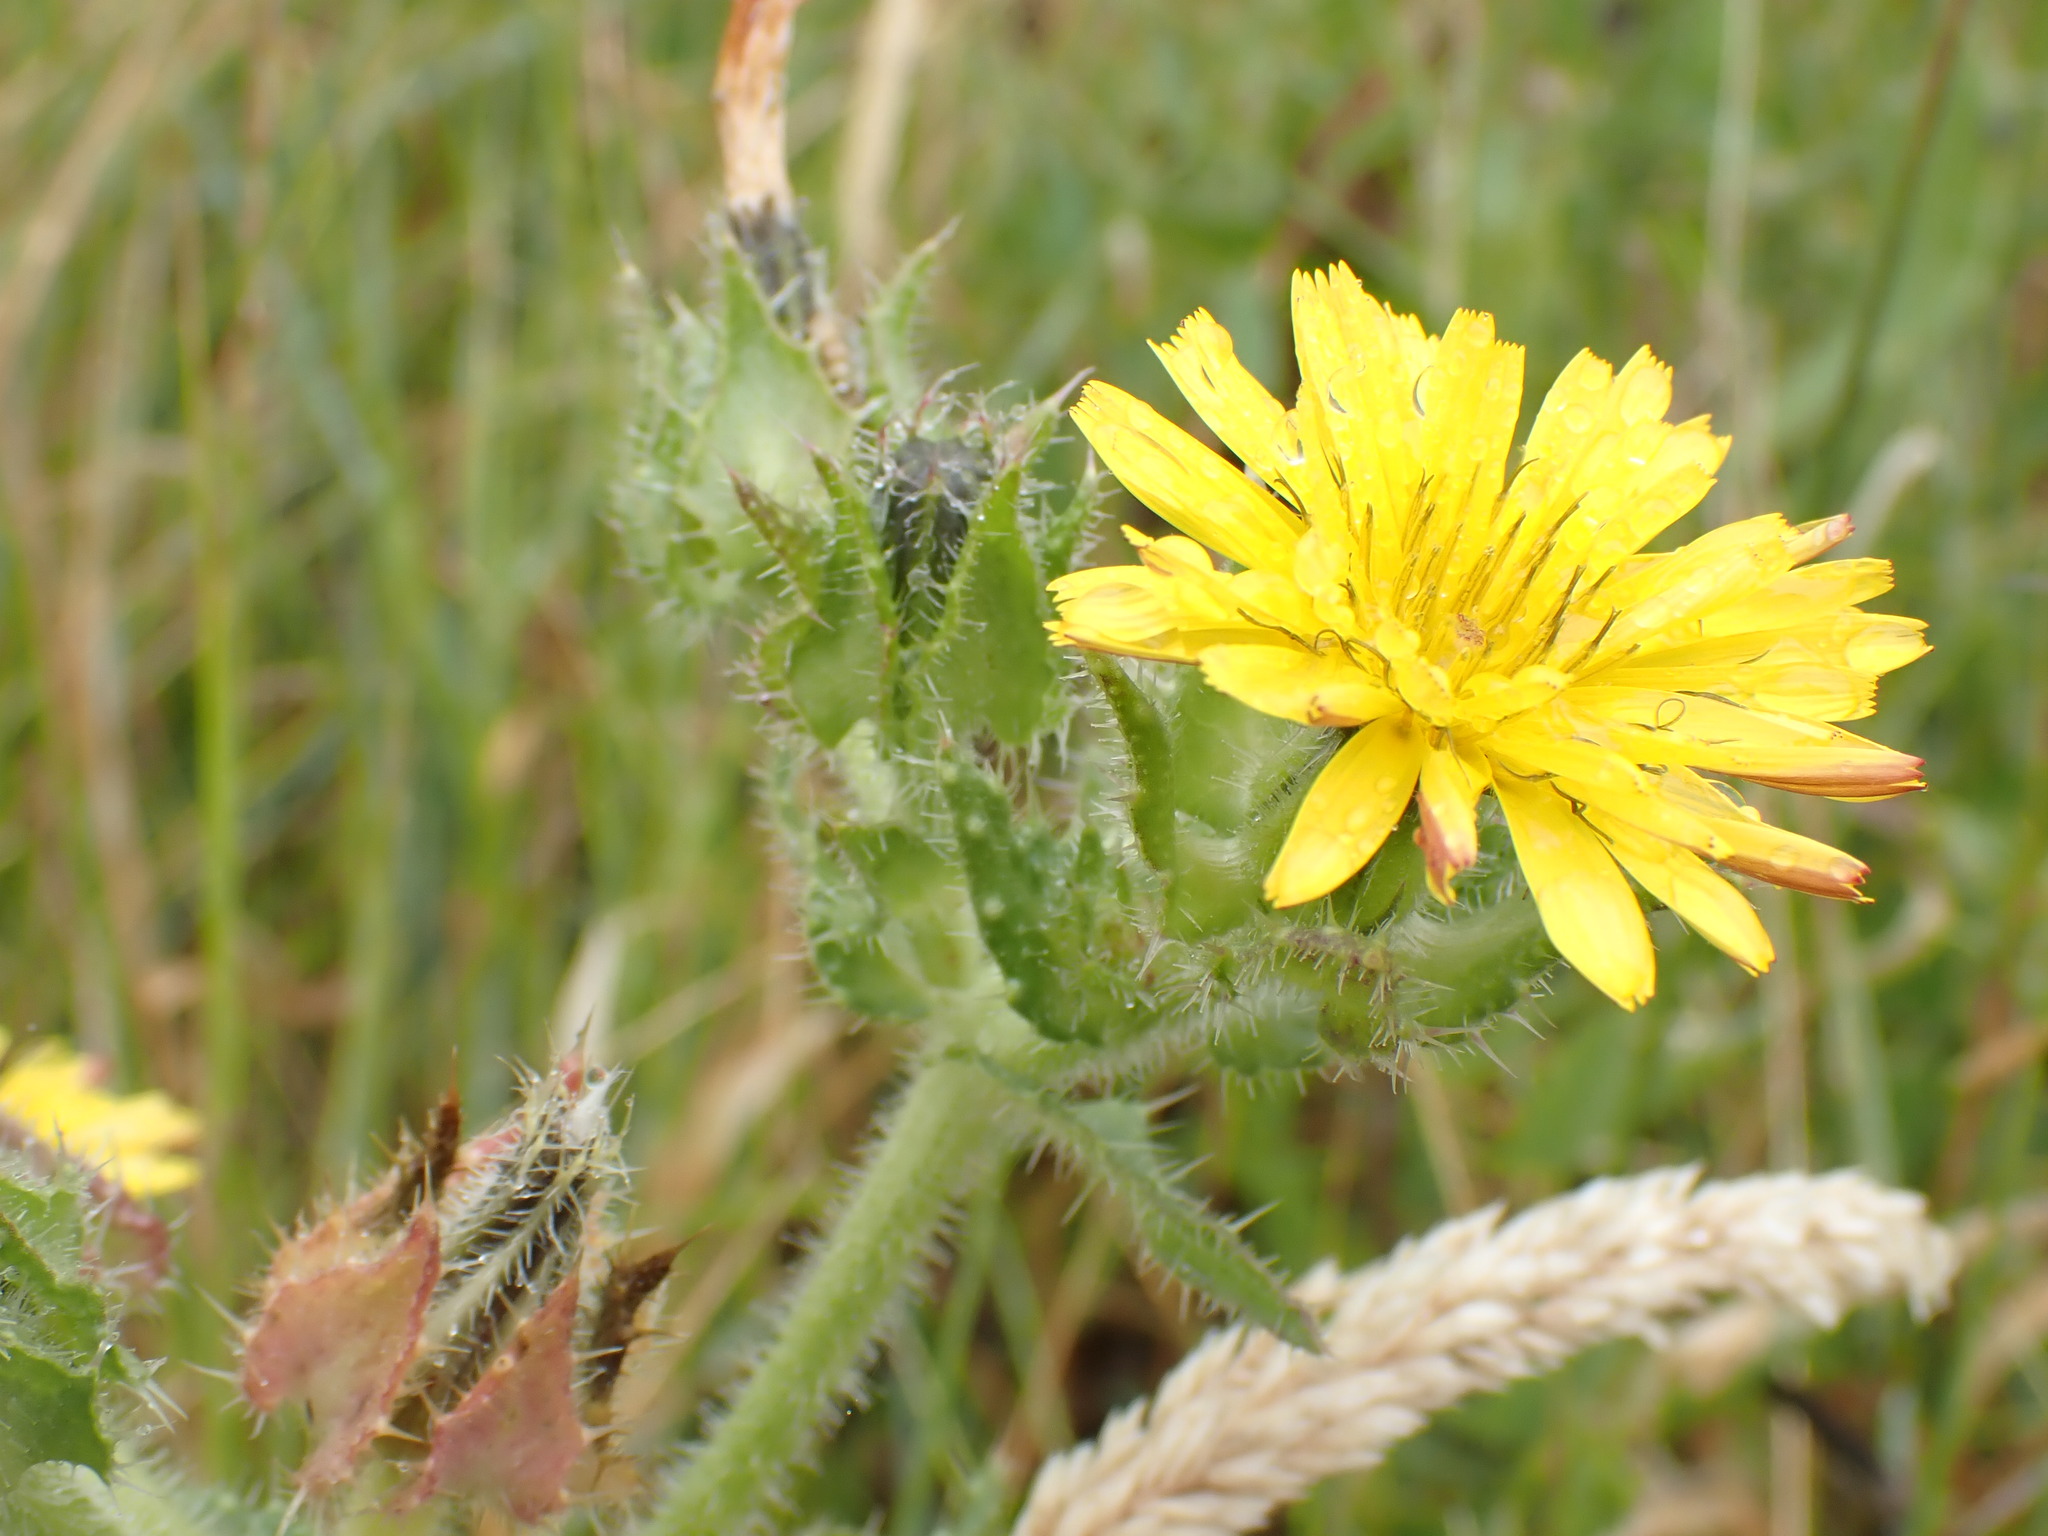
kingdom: Plantae
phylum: Tracheophyta
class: Magnoliopsida
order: Asterales
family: Asteraceae
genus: Helminthotheca
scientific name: Helminthotheca echioides
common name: Ox-tongue
